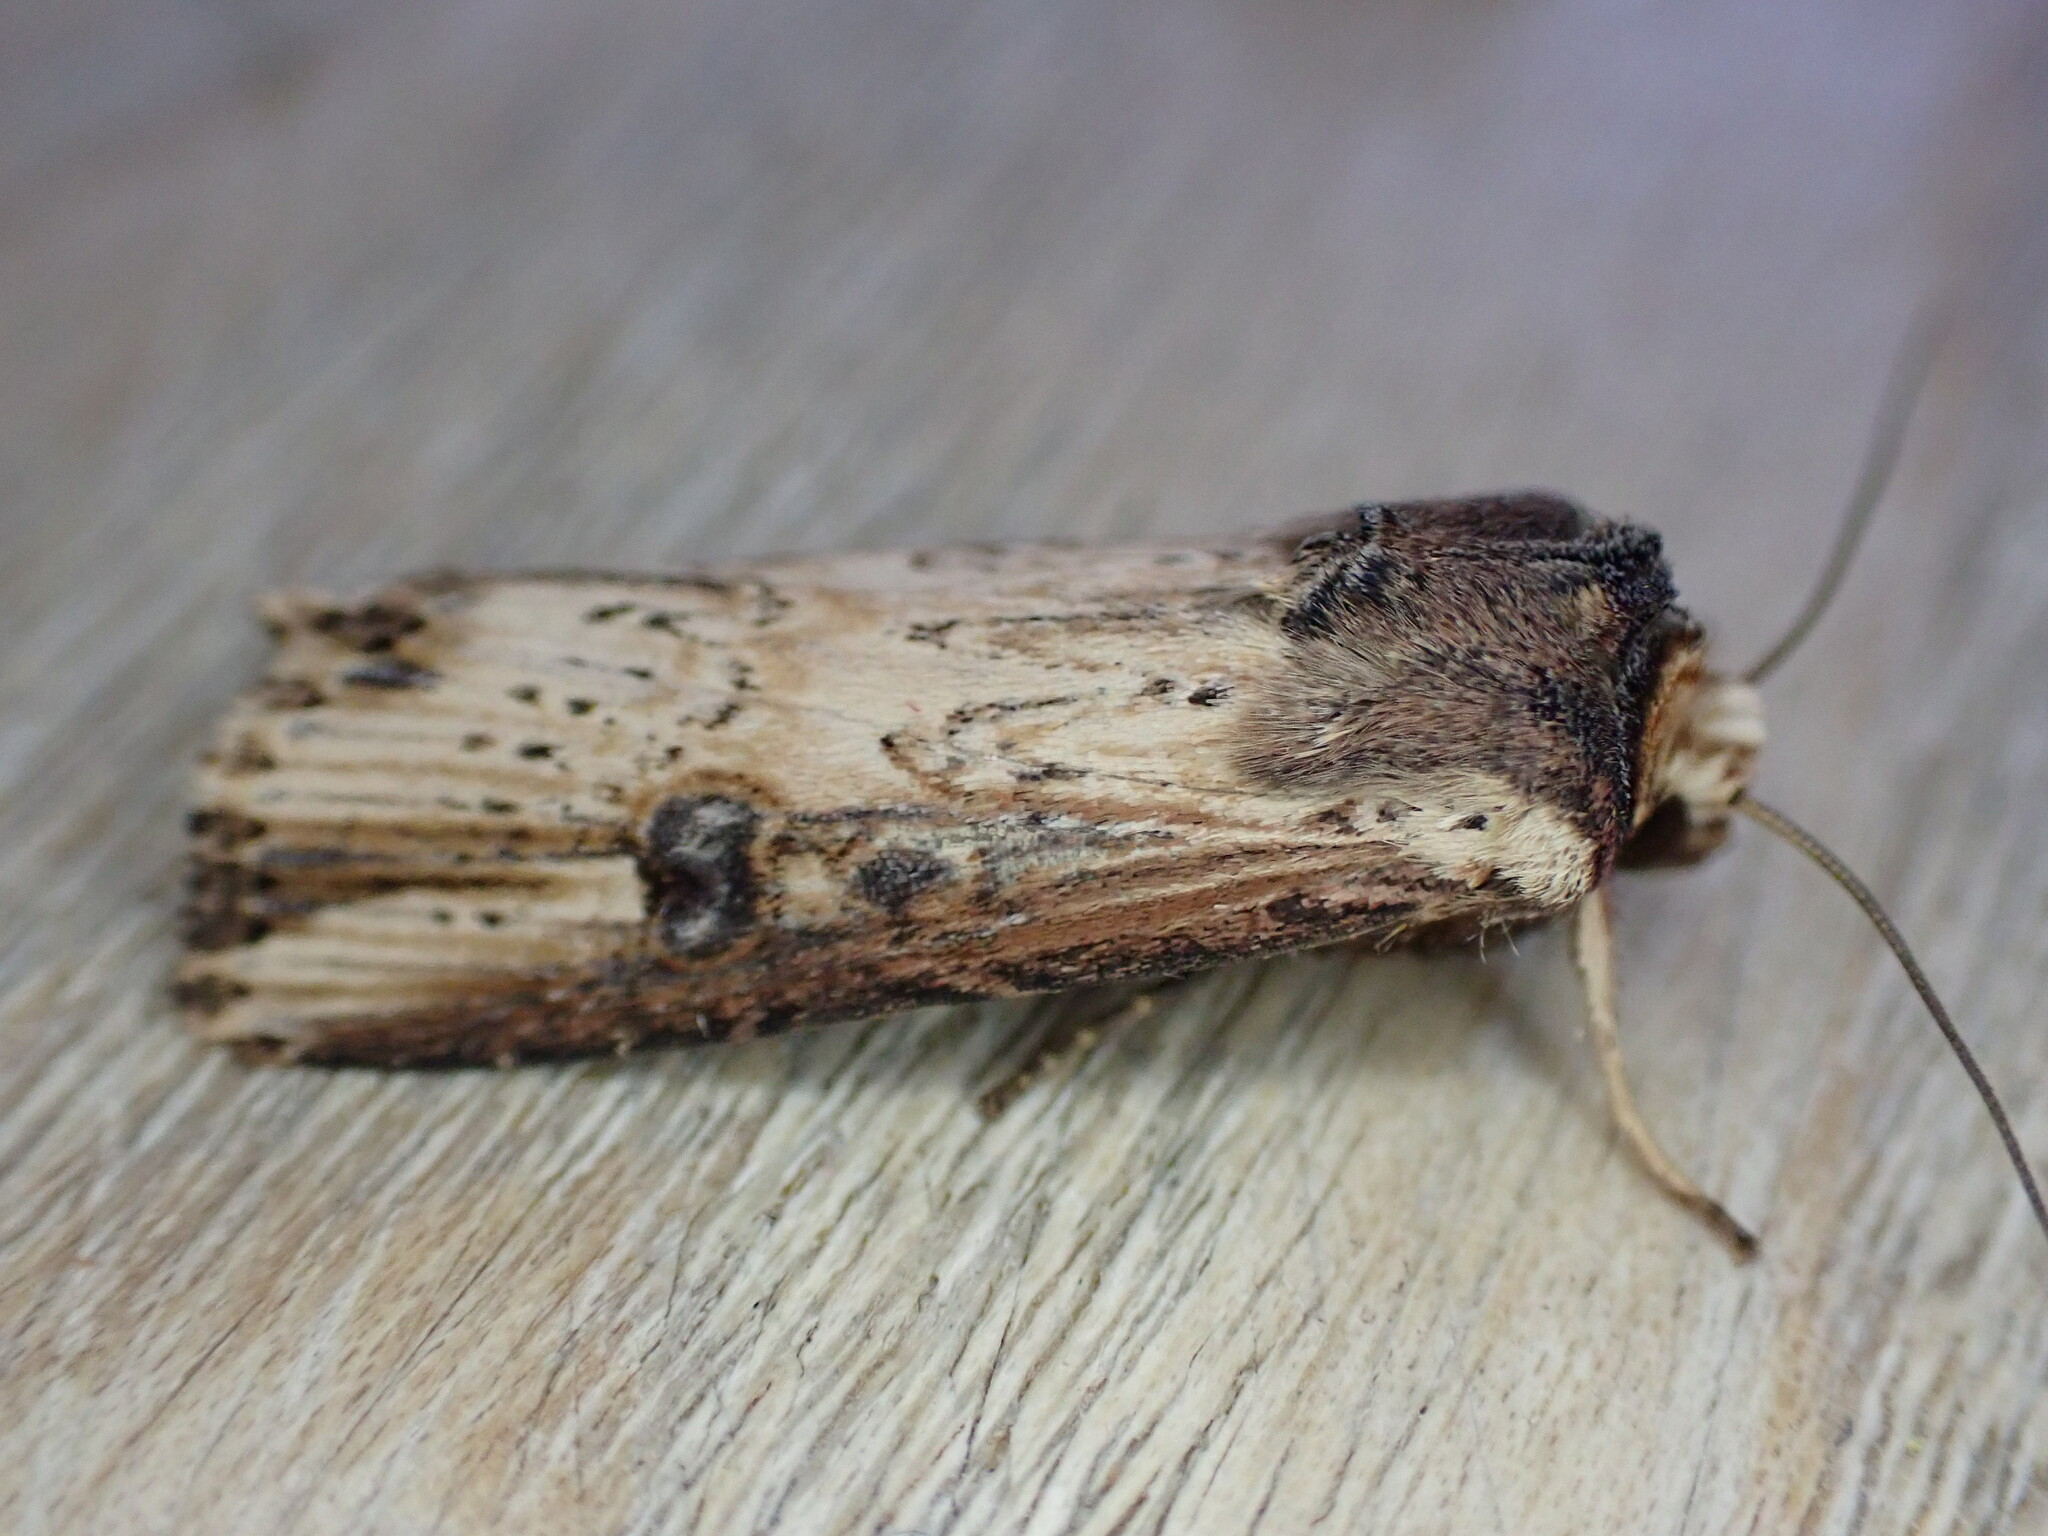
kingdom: Animalia
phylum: Arthropoda
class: Insecta
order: Lepidoptera
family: Noctuidae
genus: Axylia
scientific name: Axylia putris
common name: Flame
